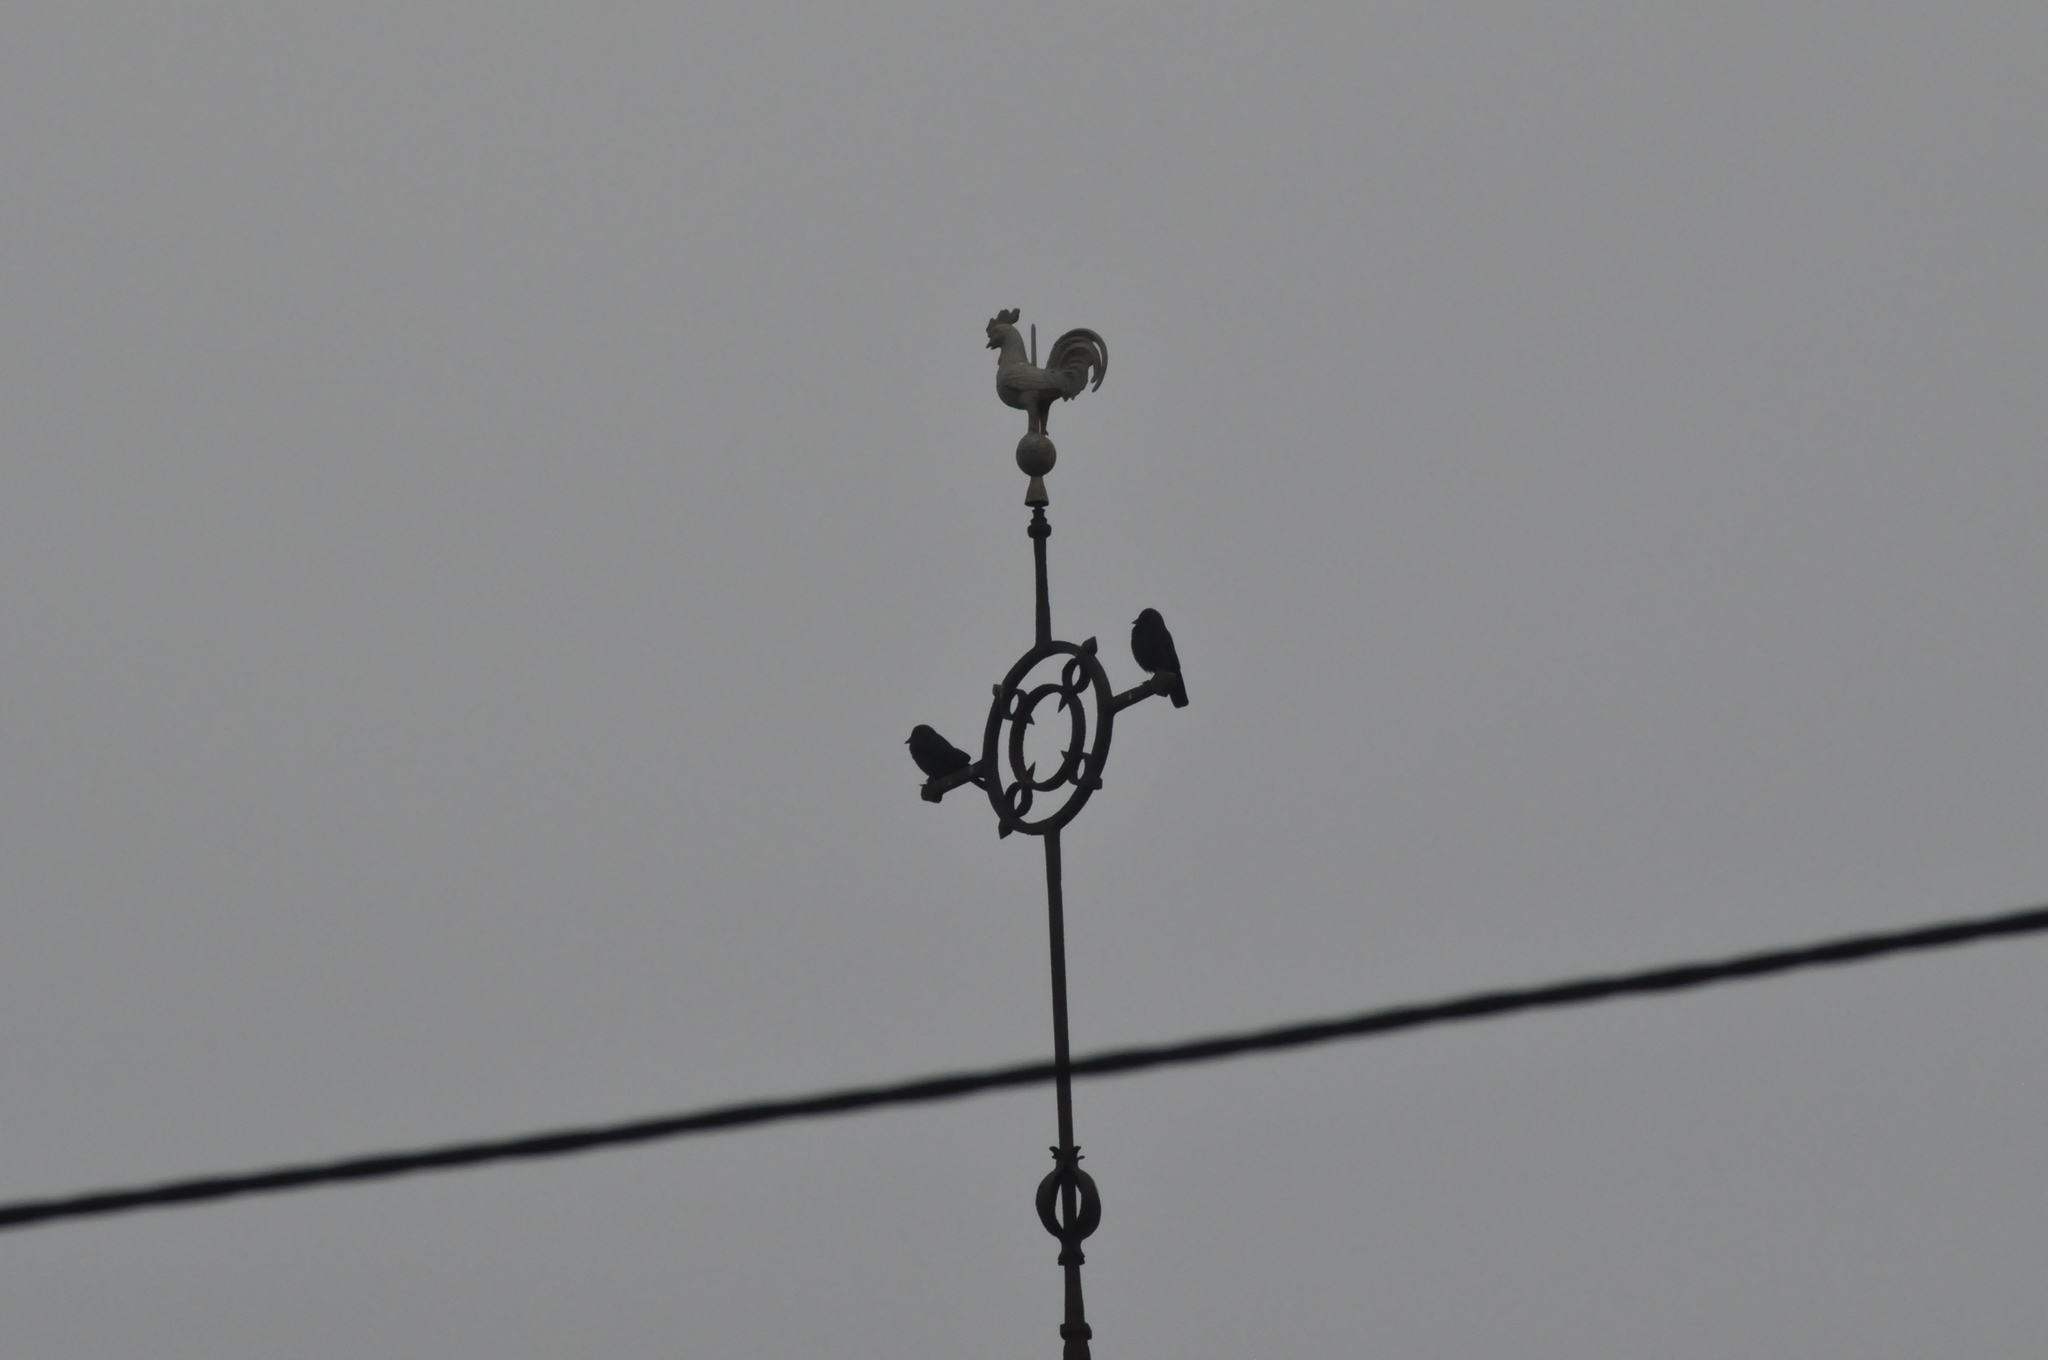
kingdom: Animalia
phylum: Chordata
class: Aves
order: Passeriformes
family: Corvidae
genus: Coloeus
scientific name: Coloeus monedula
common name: Western jackdaw
